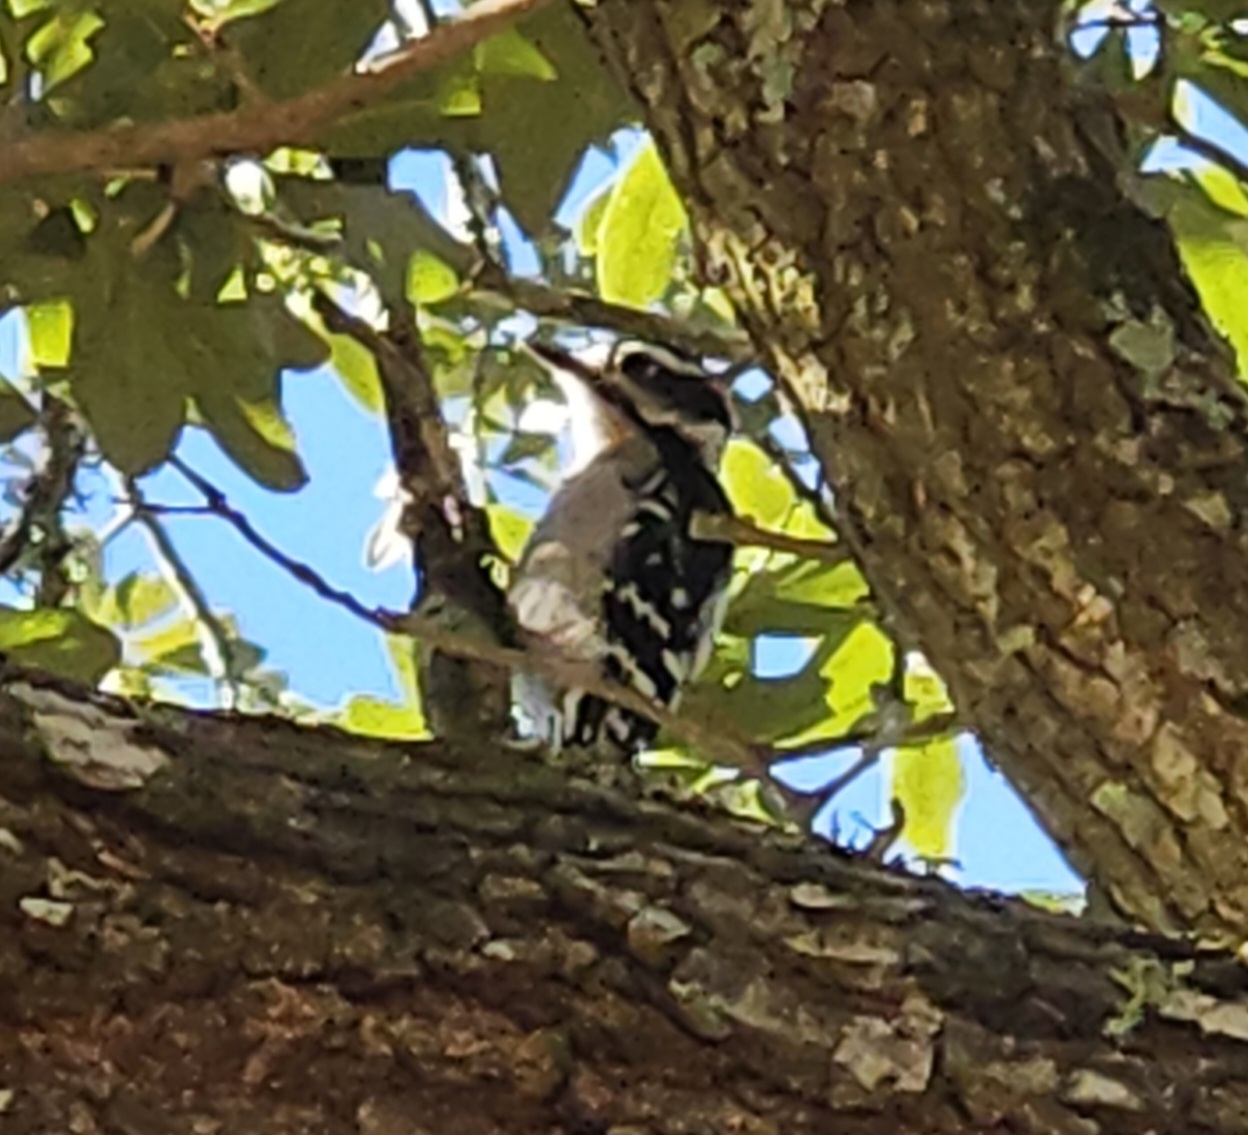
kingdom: Animalia
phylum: Chordata
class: Aves
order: Piciformes
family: Picidae
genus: Dryobates
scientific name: Dryobates pubescens
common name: Downy woodpecker
